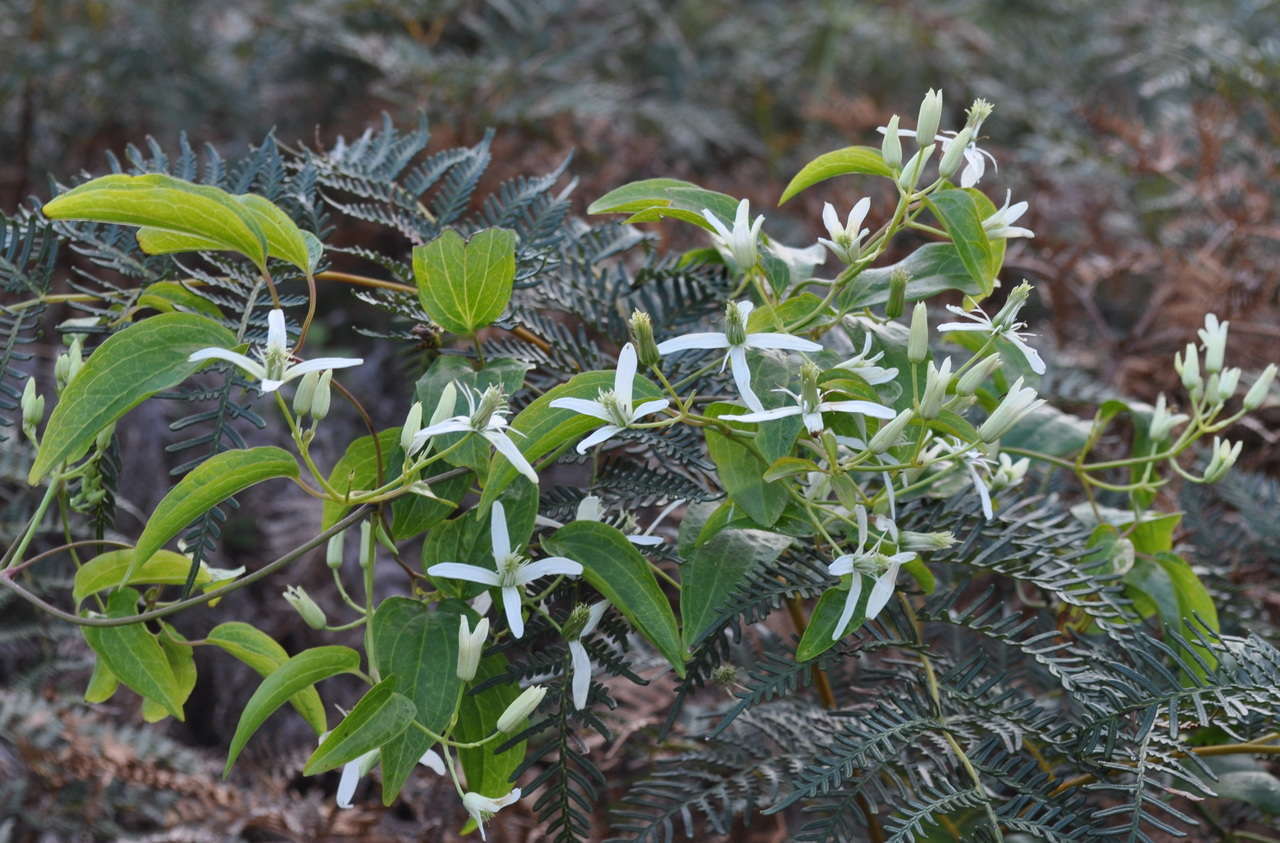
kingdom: Plantae
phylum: Tracheophyta
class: Magnoliopsida
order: Ranunculales
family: Ranunculaceae
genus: Clematis
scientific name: Clematis glycinoides
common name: Forest clematis
